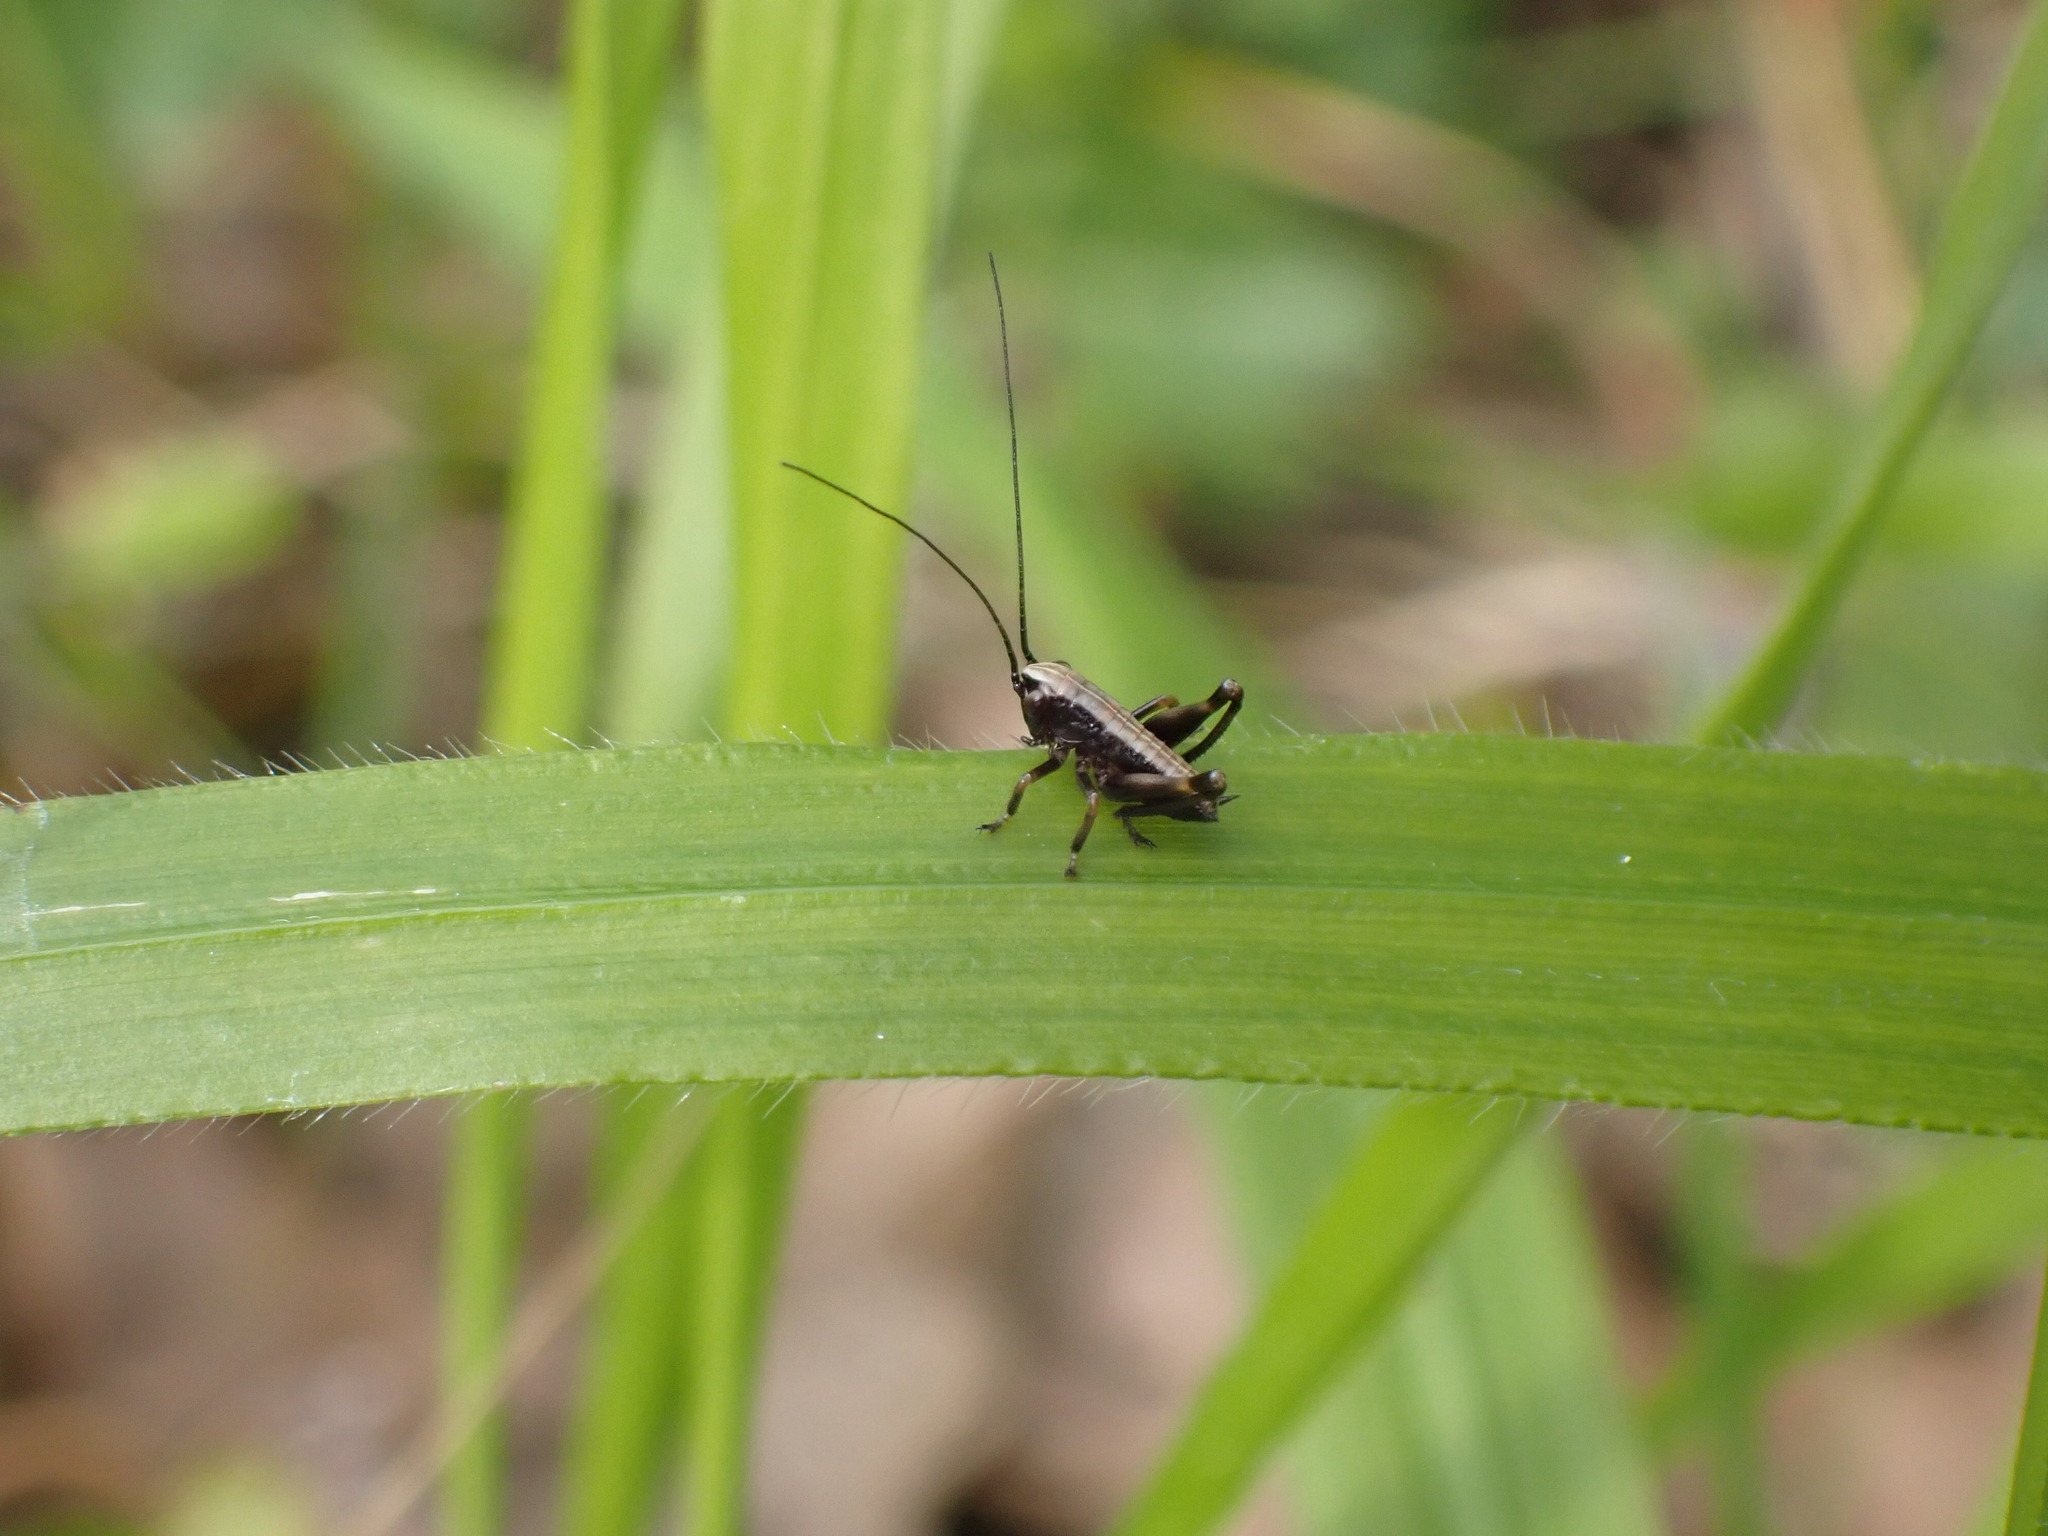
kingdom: Animalia
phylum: Arthropoda
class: Insecta
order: Orthoptera
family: Tettigoniidae
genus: Pholidoptera
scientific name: Pholidoptera griseoaptera
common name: Dark bush-cricket
